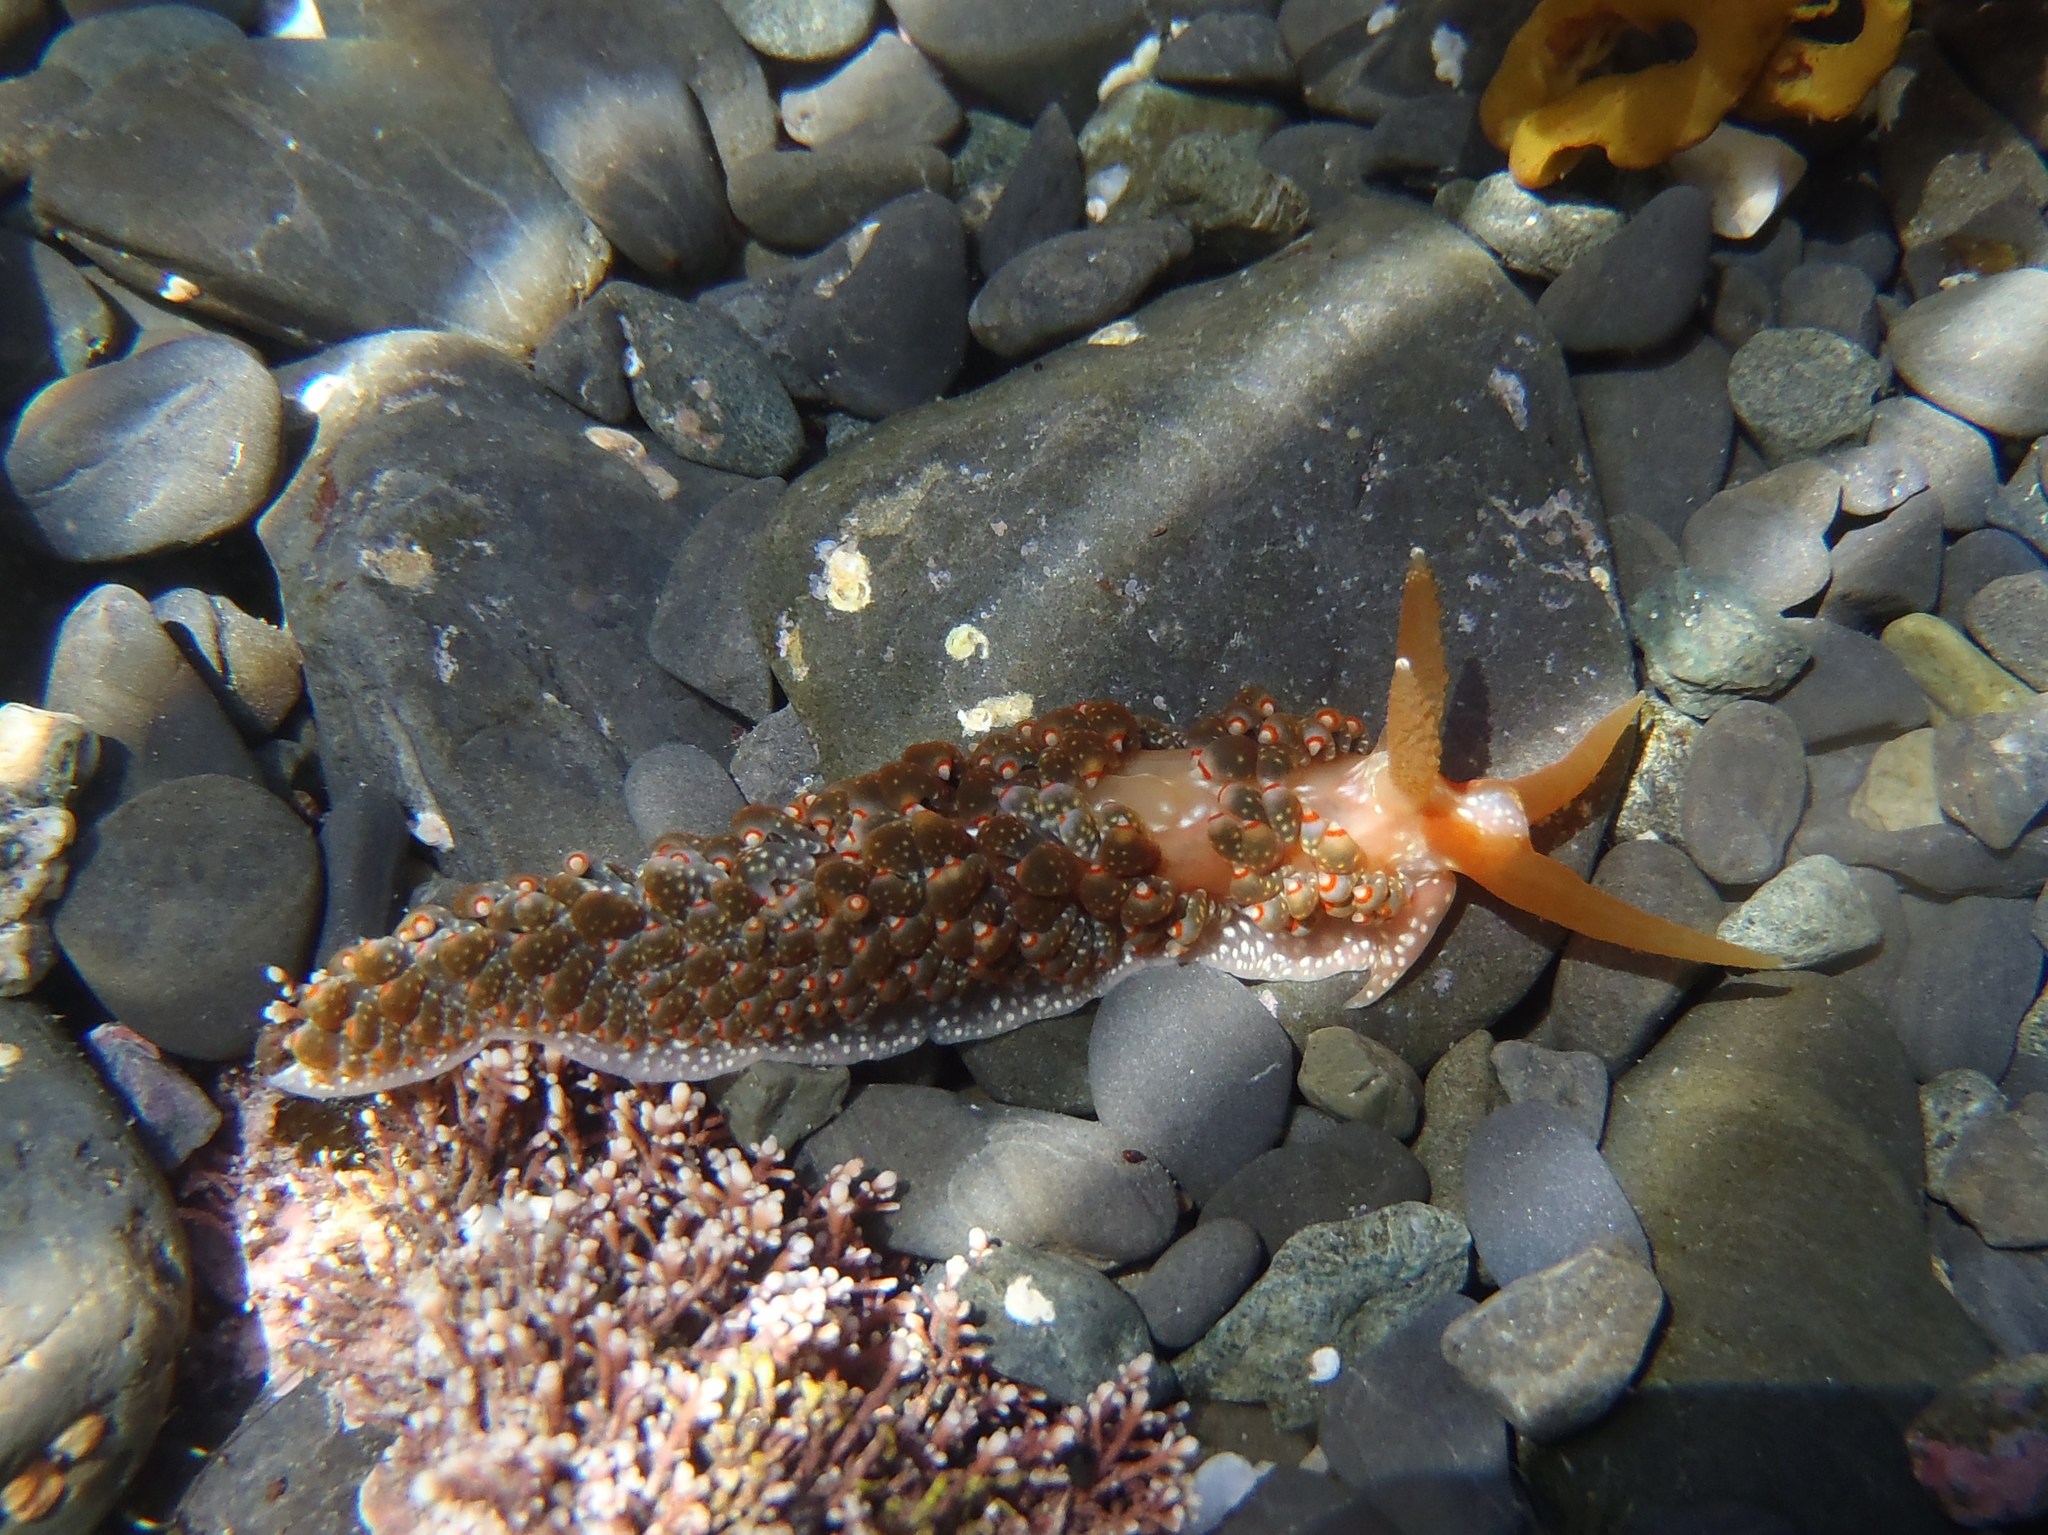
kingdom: Animalia
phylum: Mollusca
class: Gastropoda
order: Nudibranchia
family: Aeolidiidae
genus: Baeolidia
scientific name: Baeolidia australis
